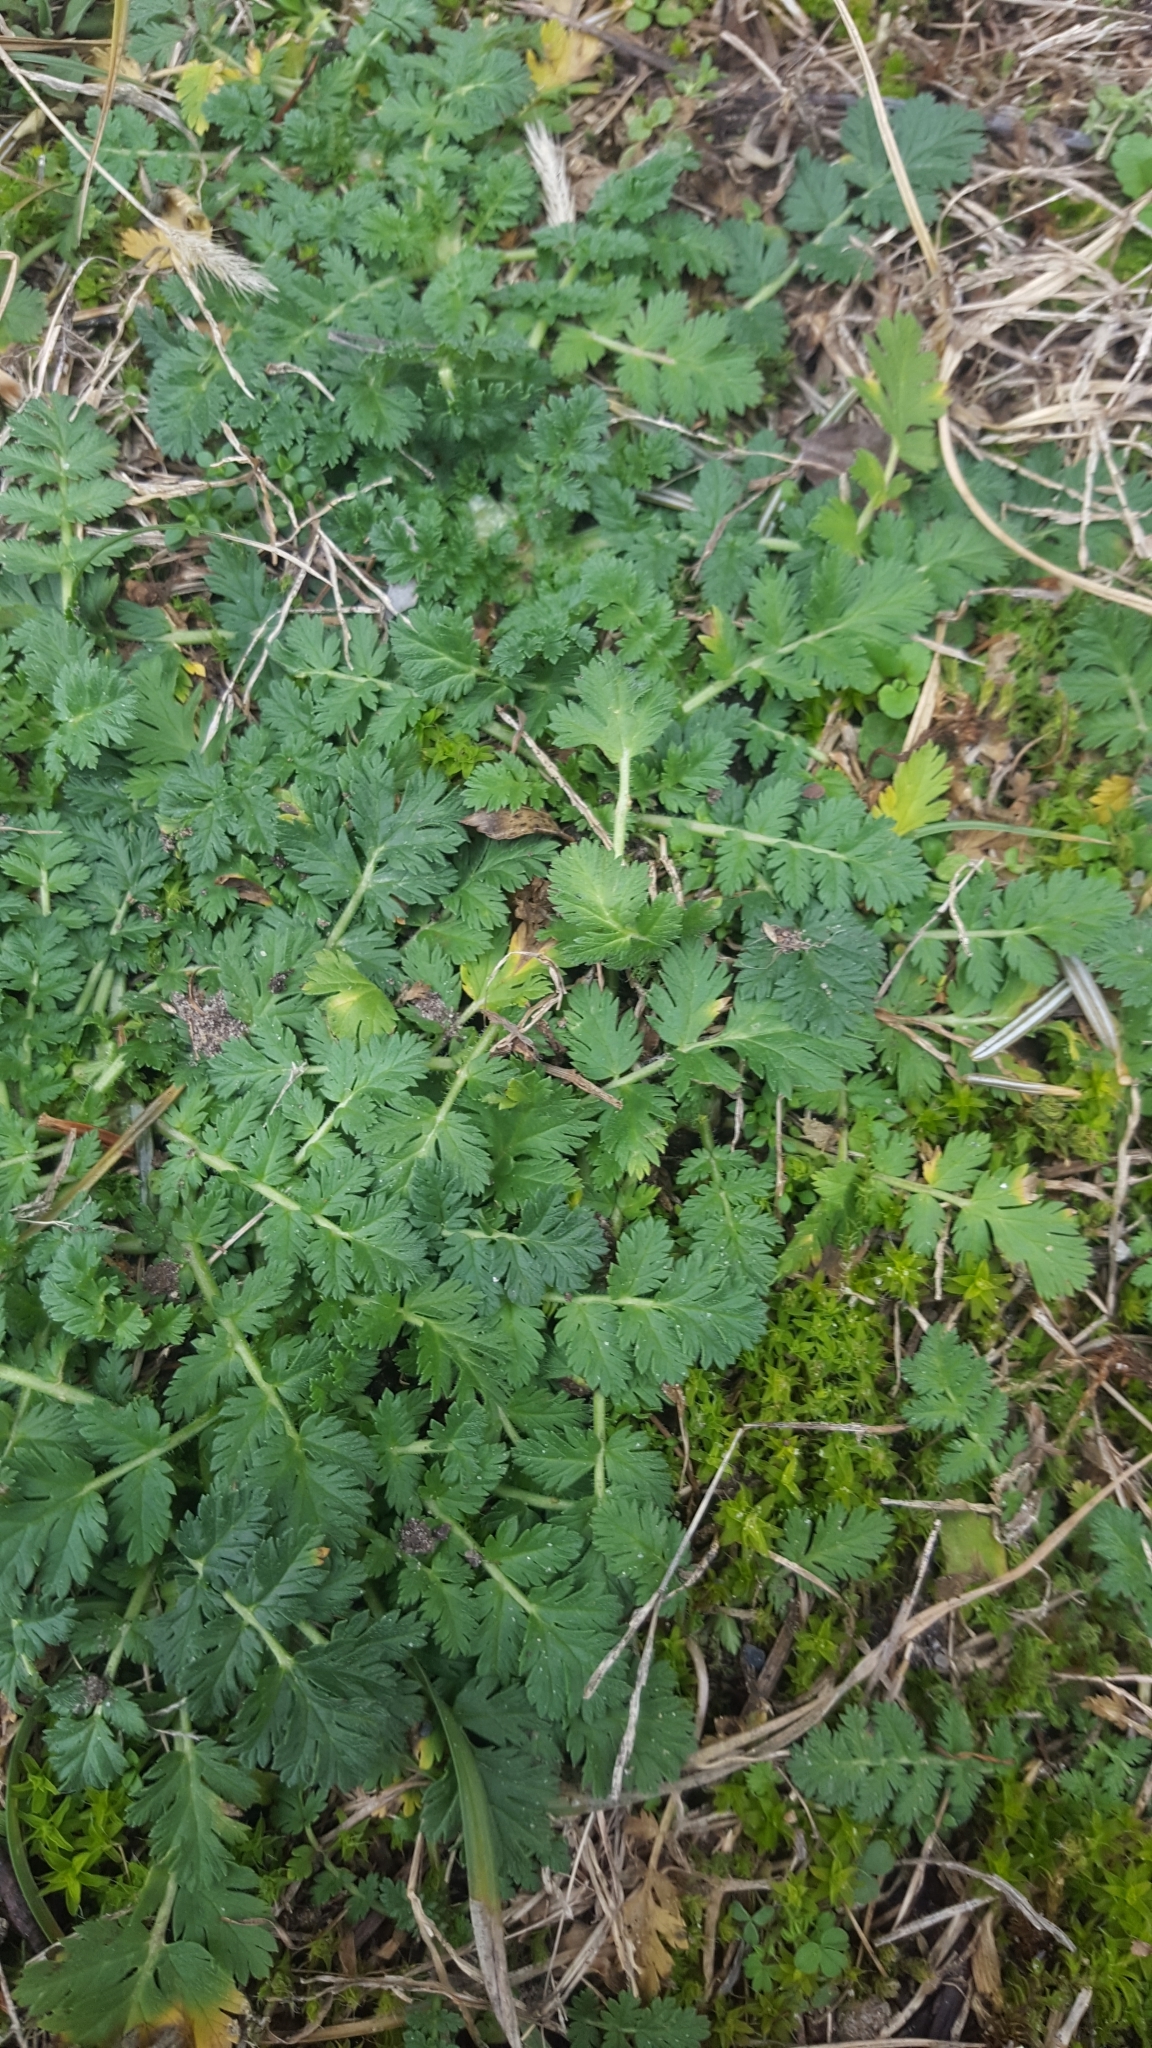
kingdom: Plantae
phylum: Tracheophyta
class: Magnoliopsida
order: Geraniales
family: Geraniaceae
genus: Erodium
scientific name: Erodium cicutarium
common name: Common stork's-bill
